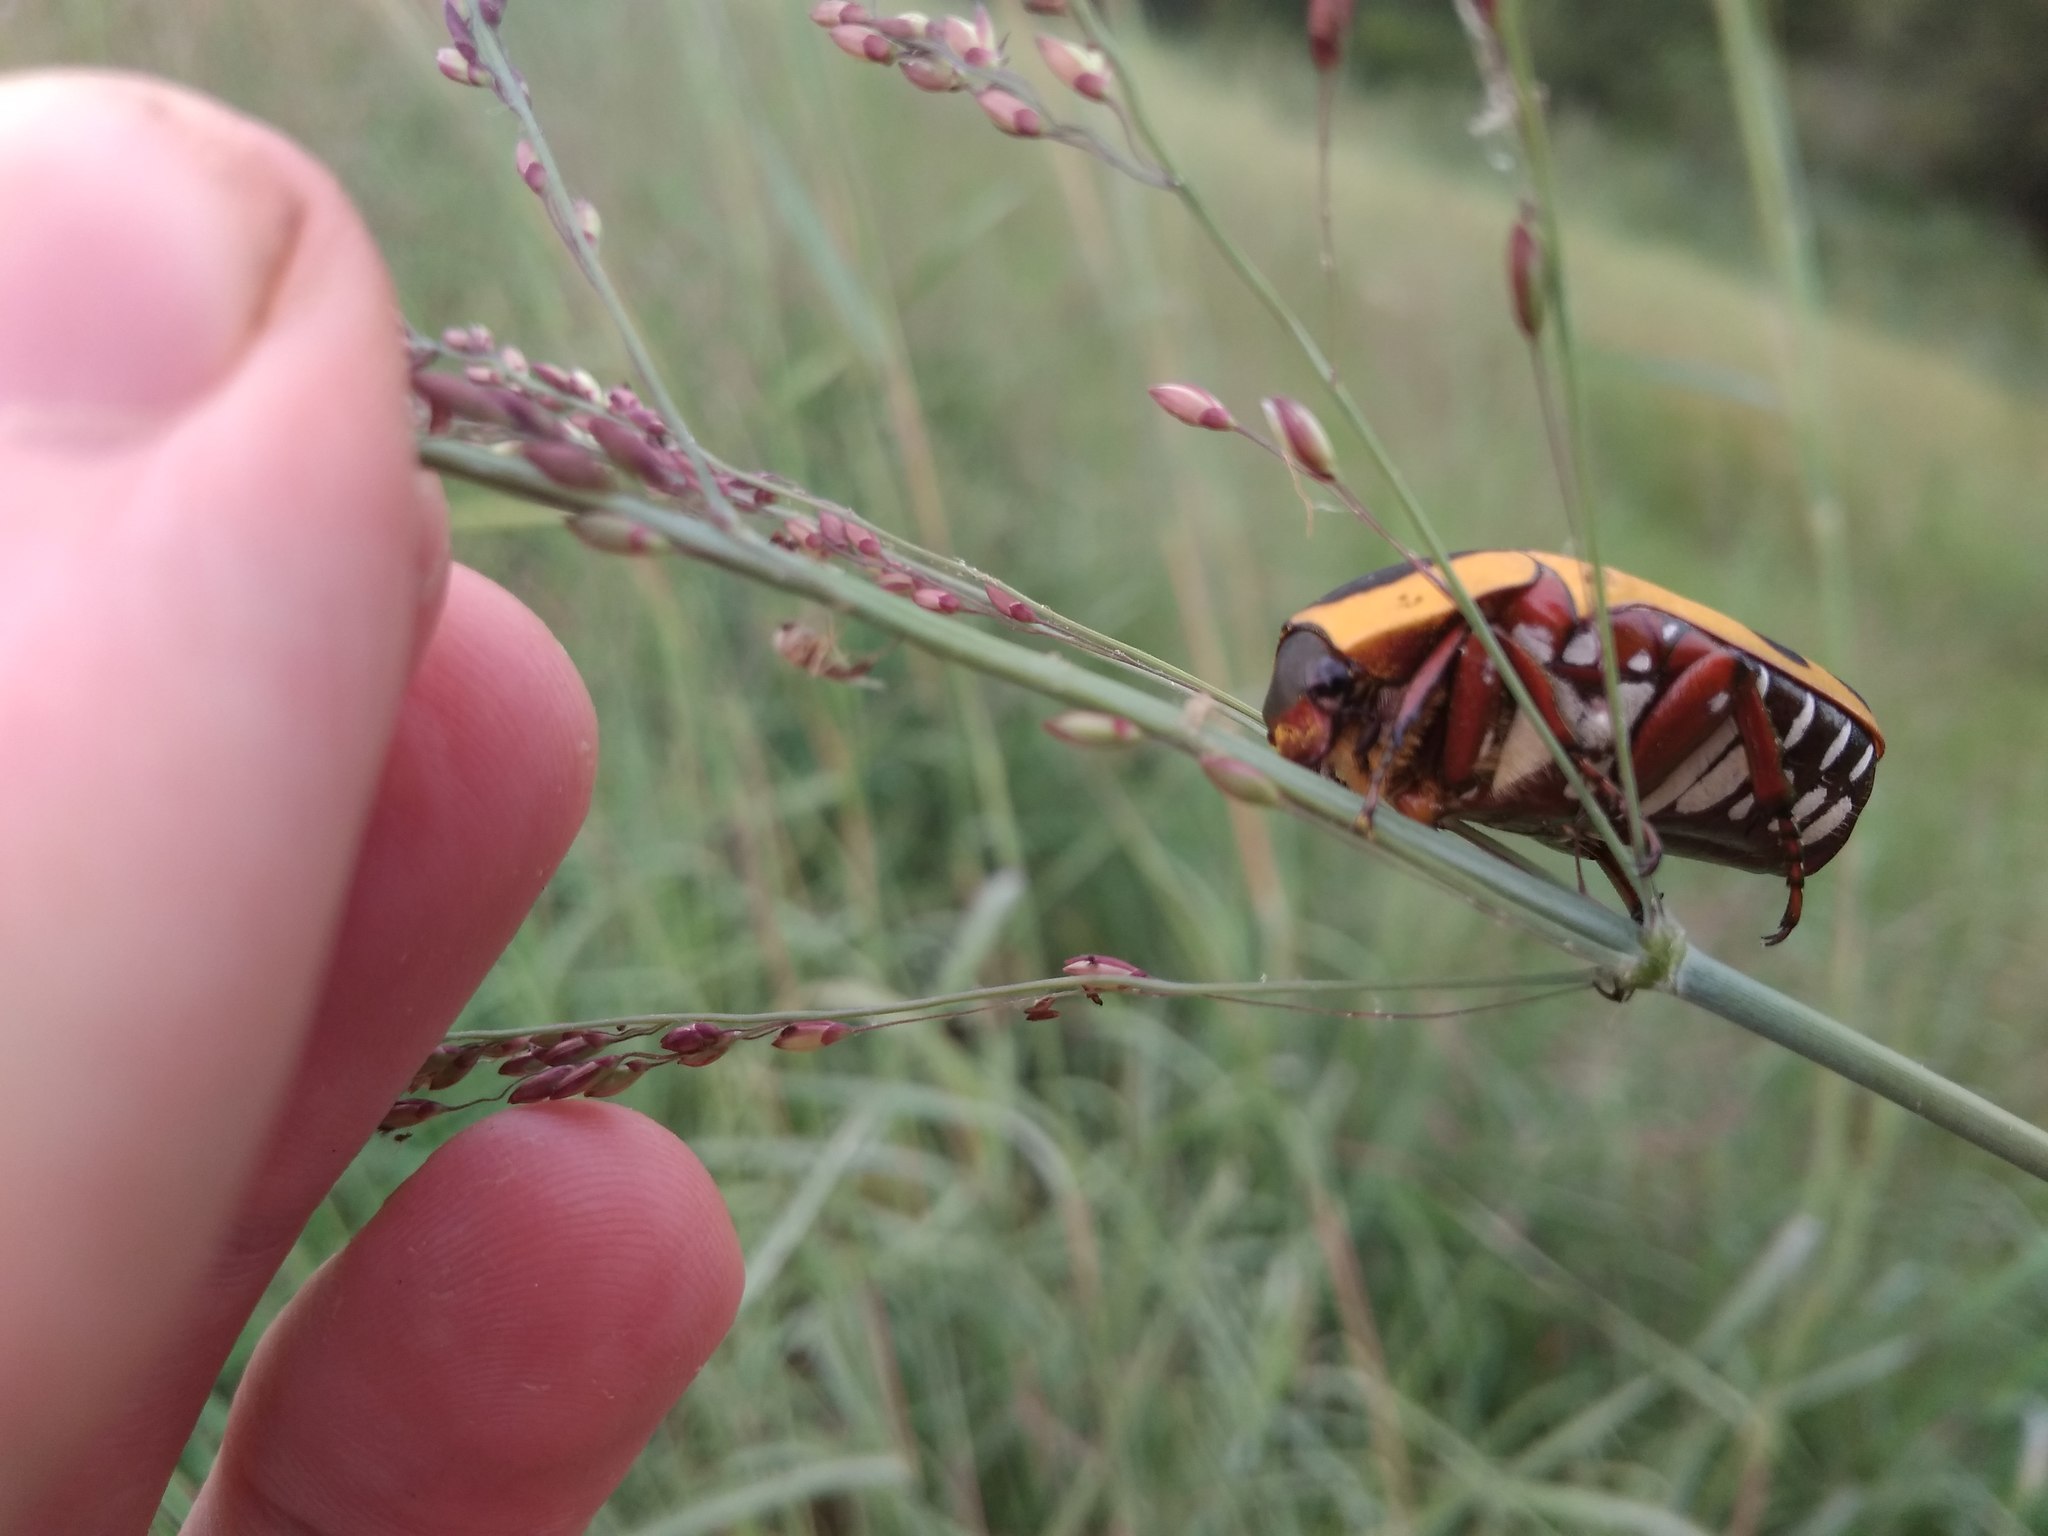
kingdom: Animalia
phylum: Arthropoda
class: Insecta
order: Coleoptera
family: Scarabaeidae
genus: Marmylida
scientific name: Marmylida impressa
